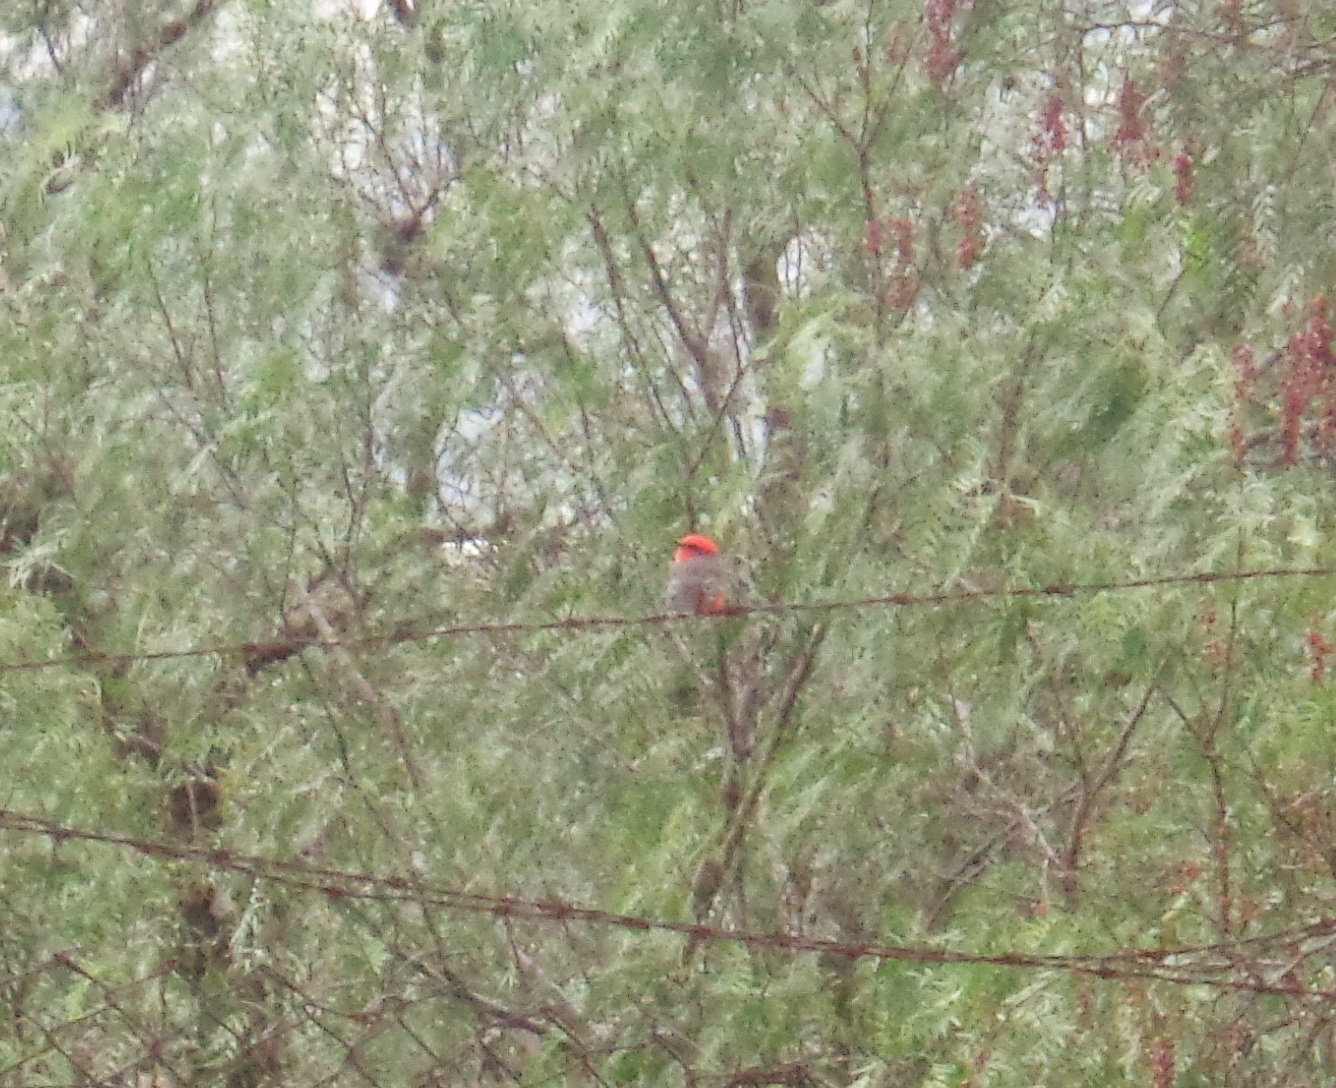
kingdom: Animalia
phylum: Chordata
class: Aves
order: Passeriformes
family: Tyrannidae
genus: Pyrocephalus
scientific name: Pyrocephalus rubinus
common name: Vermilion flycatcher
